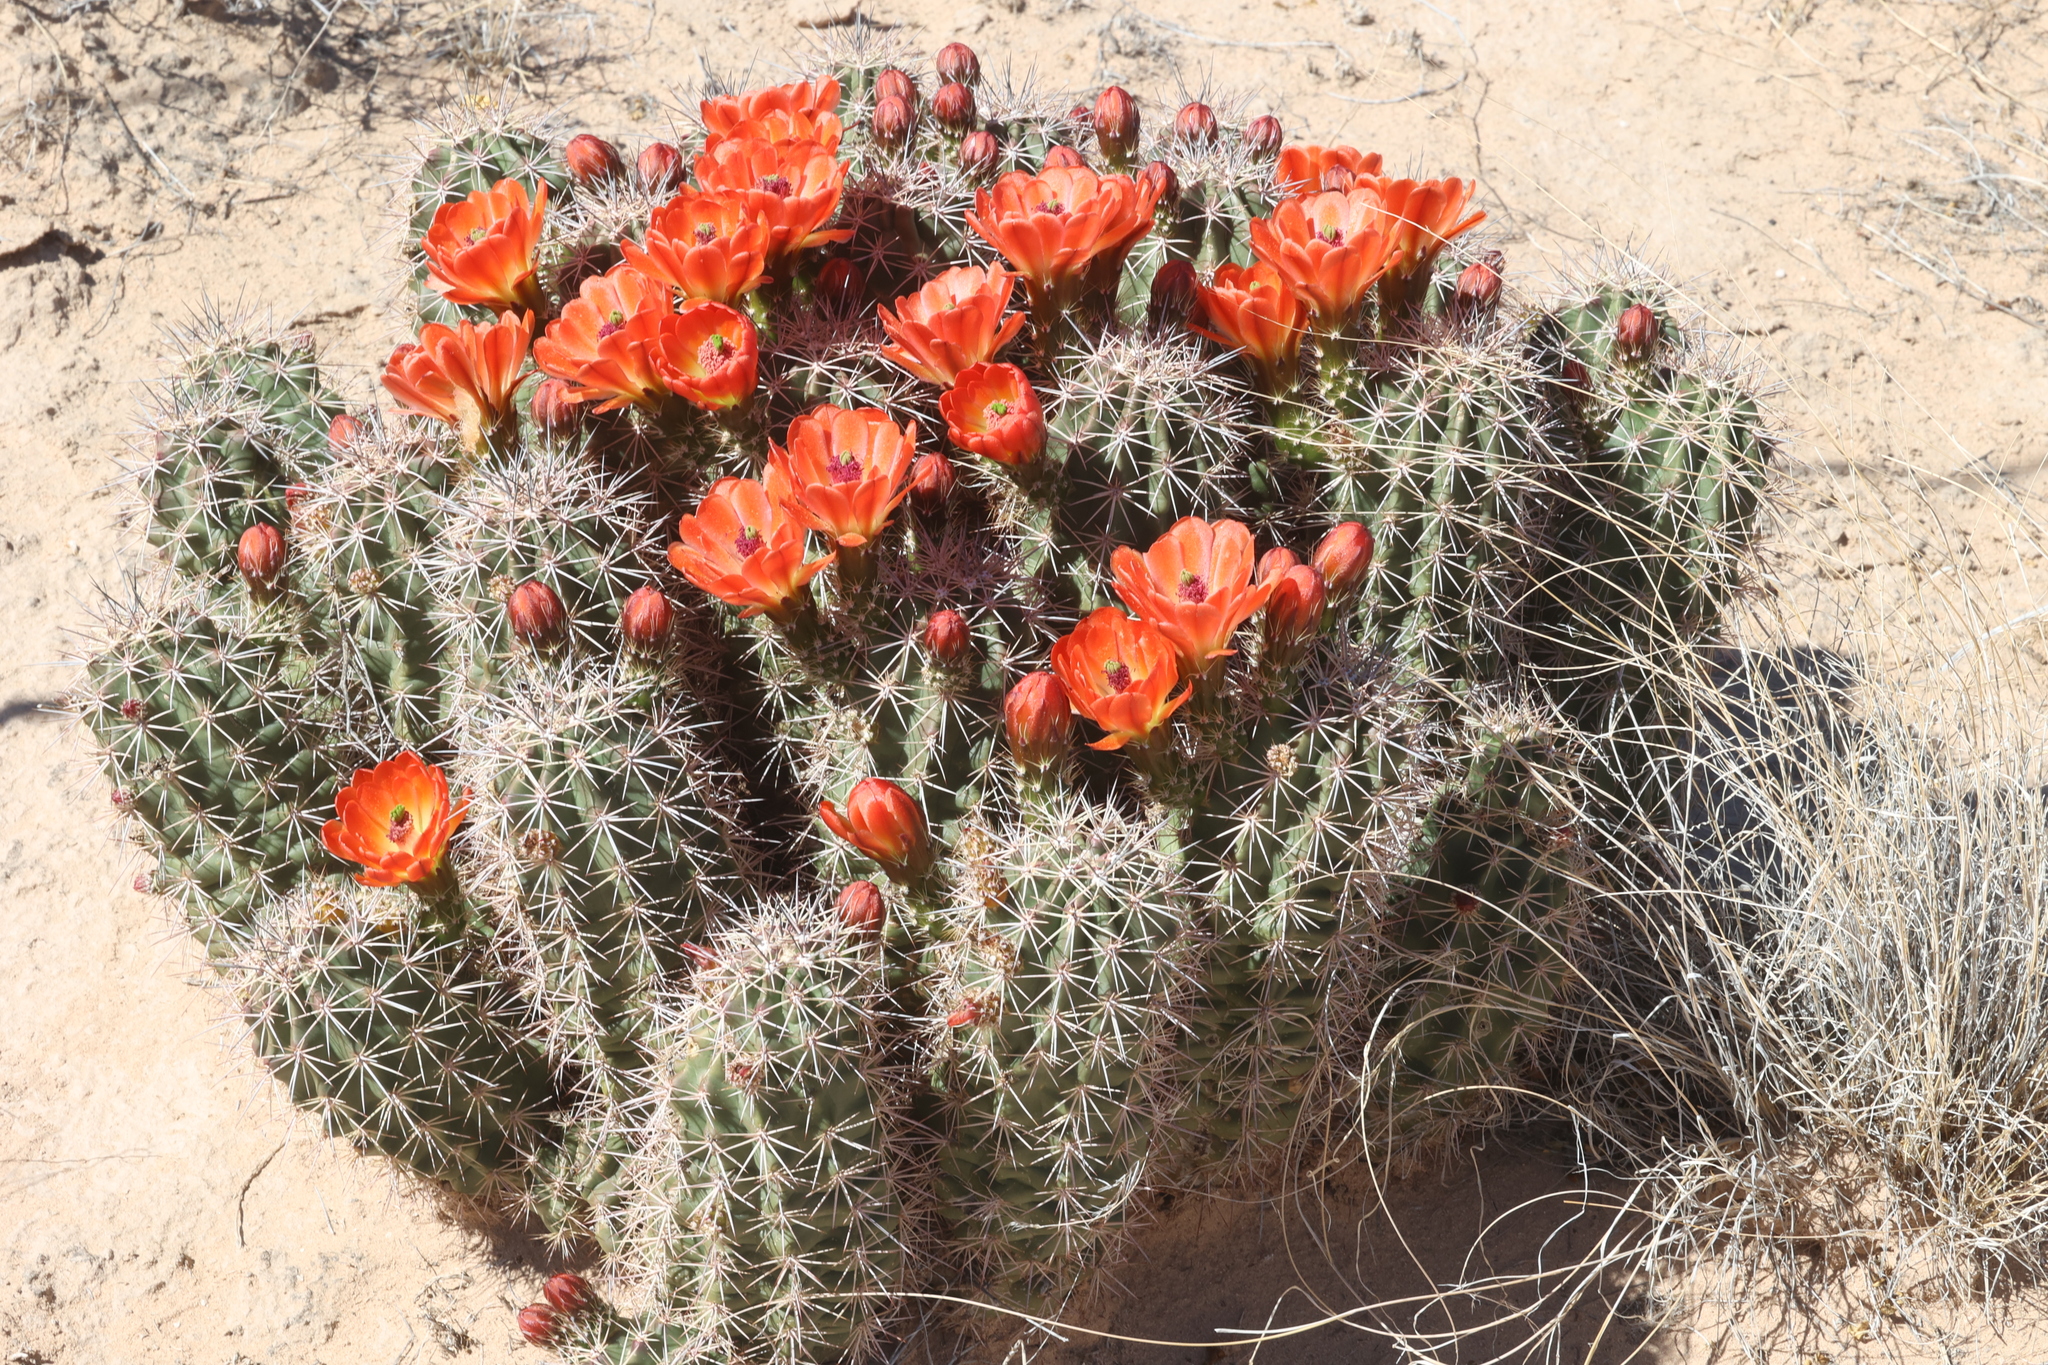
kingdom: Plantae
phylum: Tracheophyta
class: Magnoliopsida
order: Caryophyllales
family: Cactaceae
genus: Echinocereus
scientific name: Echinocereus coccineus
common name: Scarlet hedgehog cactus
